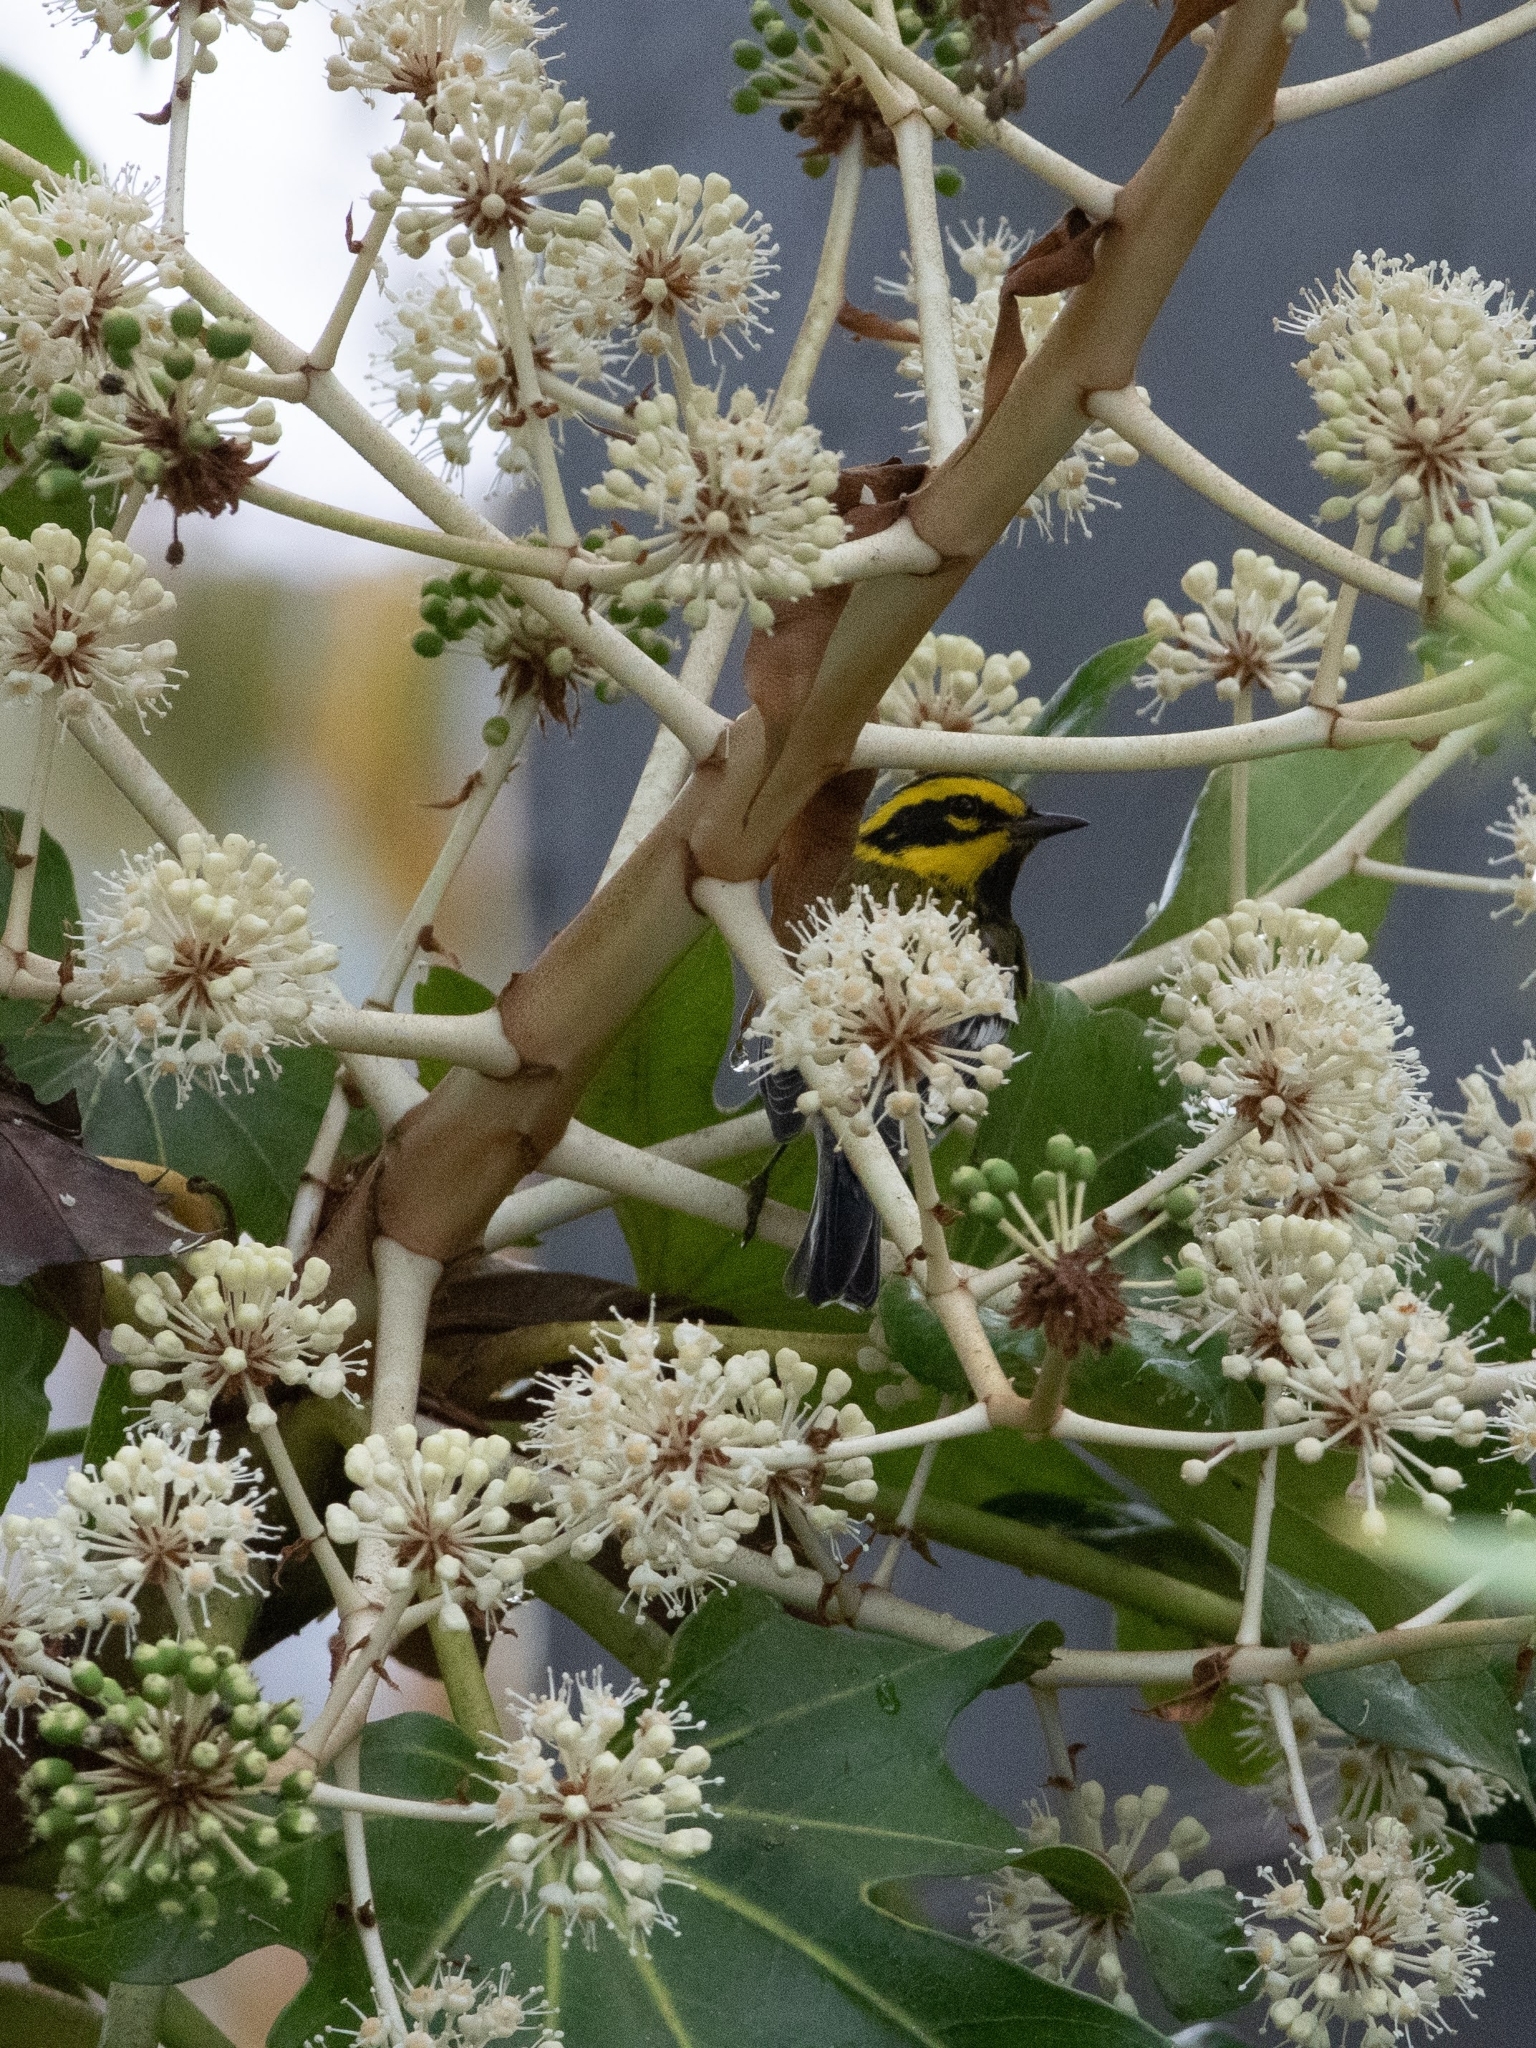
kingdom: Animalia
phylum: Chordata
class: Aves
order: Passeriformes
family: Parulidae
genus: Setophaga
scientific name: Setophaga townsendi
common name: Townsend's warbler
